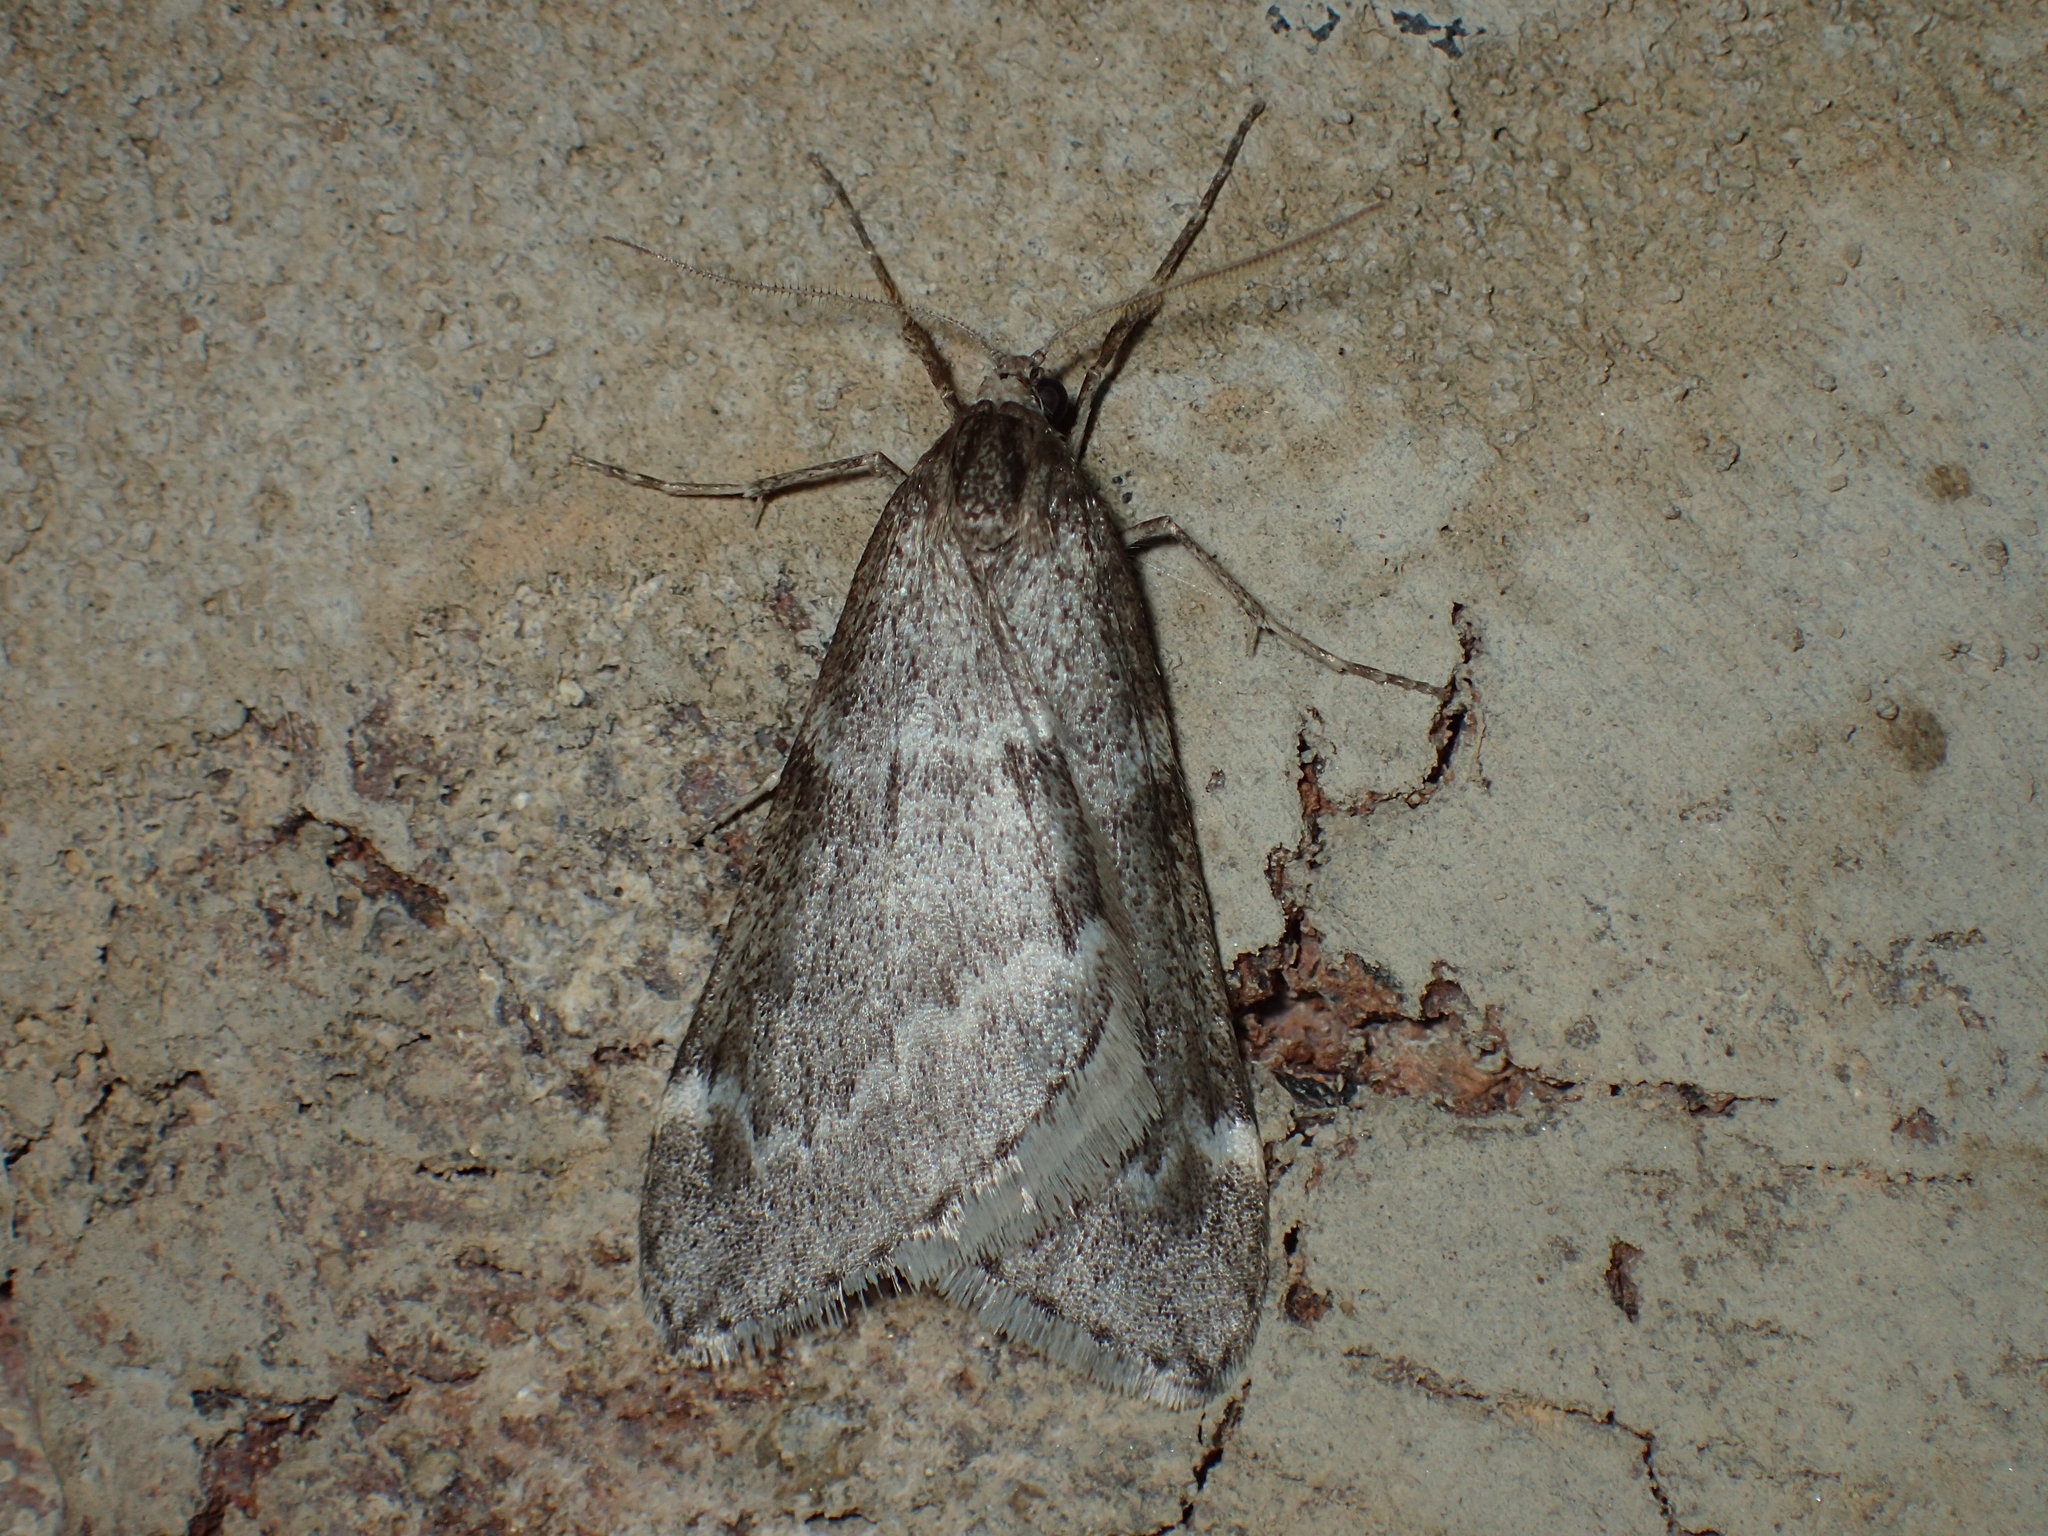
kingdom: Animalia
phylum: Arthropoda
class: Insecta
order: Lepidoptera
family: Geometridae
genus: Alsophila
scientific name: Alsophila pometaria
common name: Fall cankerworm
